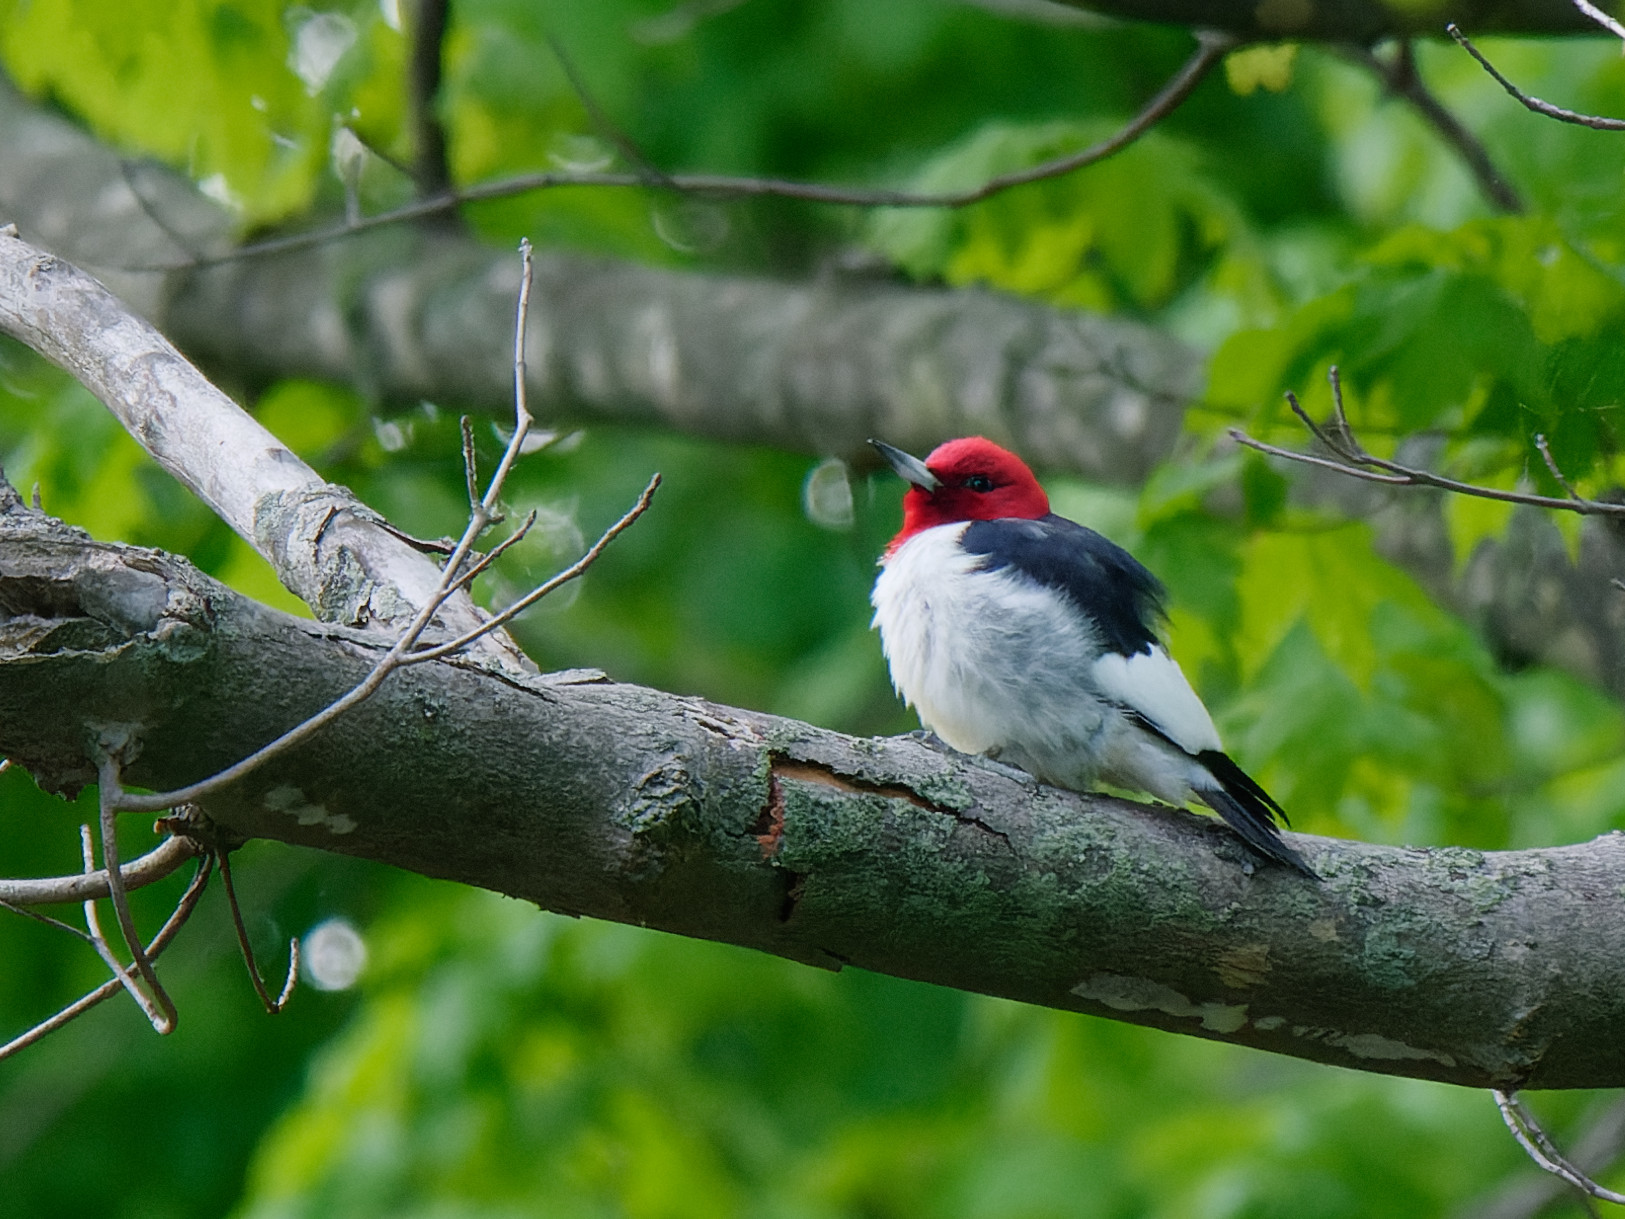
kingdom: Animalia
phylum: Chordata
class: Aves
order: Piciformes
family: Picidae
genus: Melanerpes
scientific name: Melanerpes erythrocephalus
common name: Red-headed woodpecker
